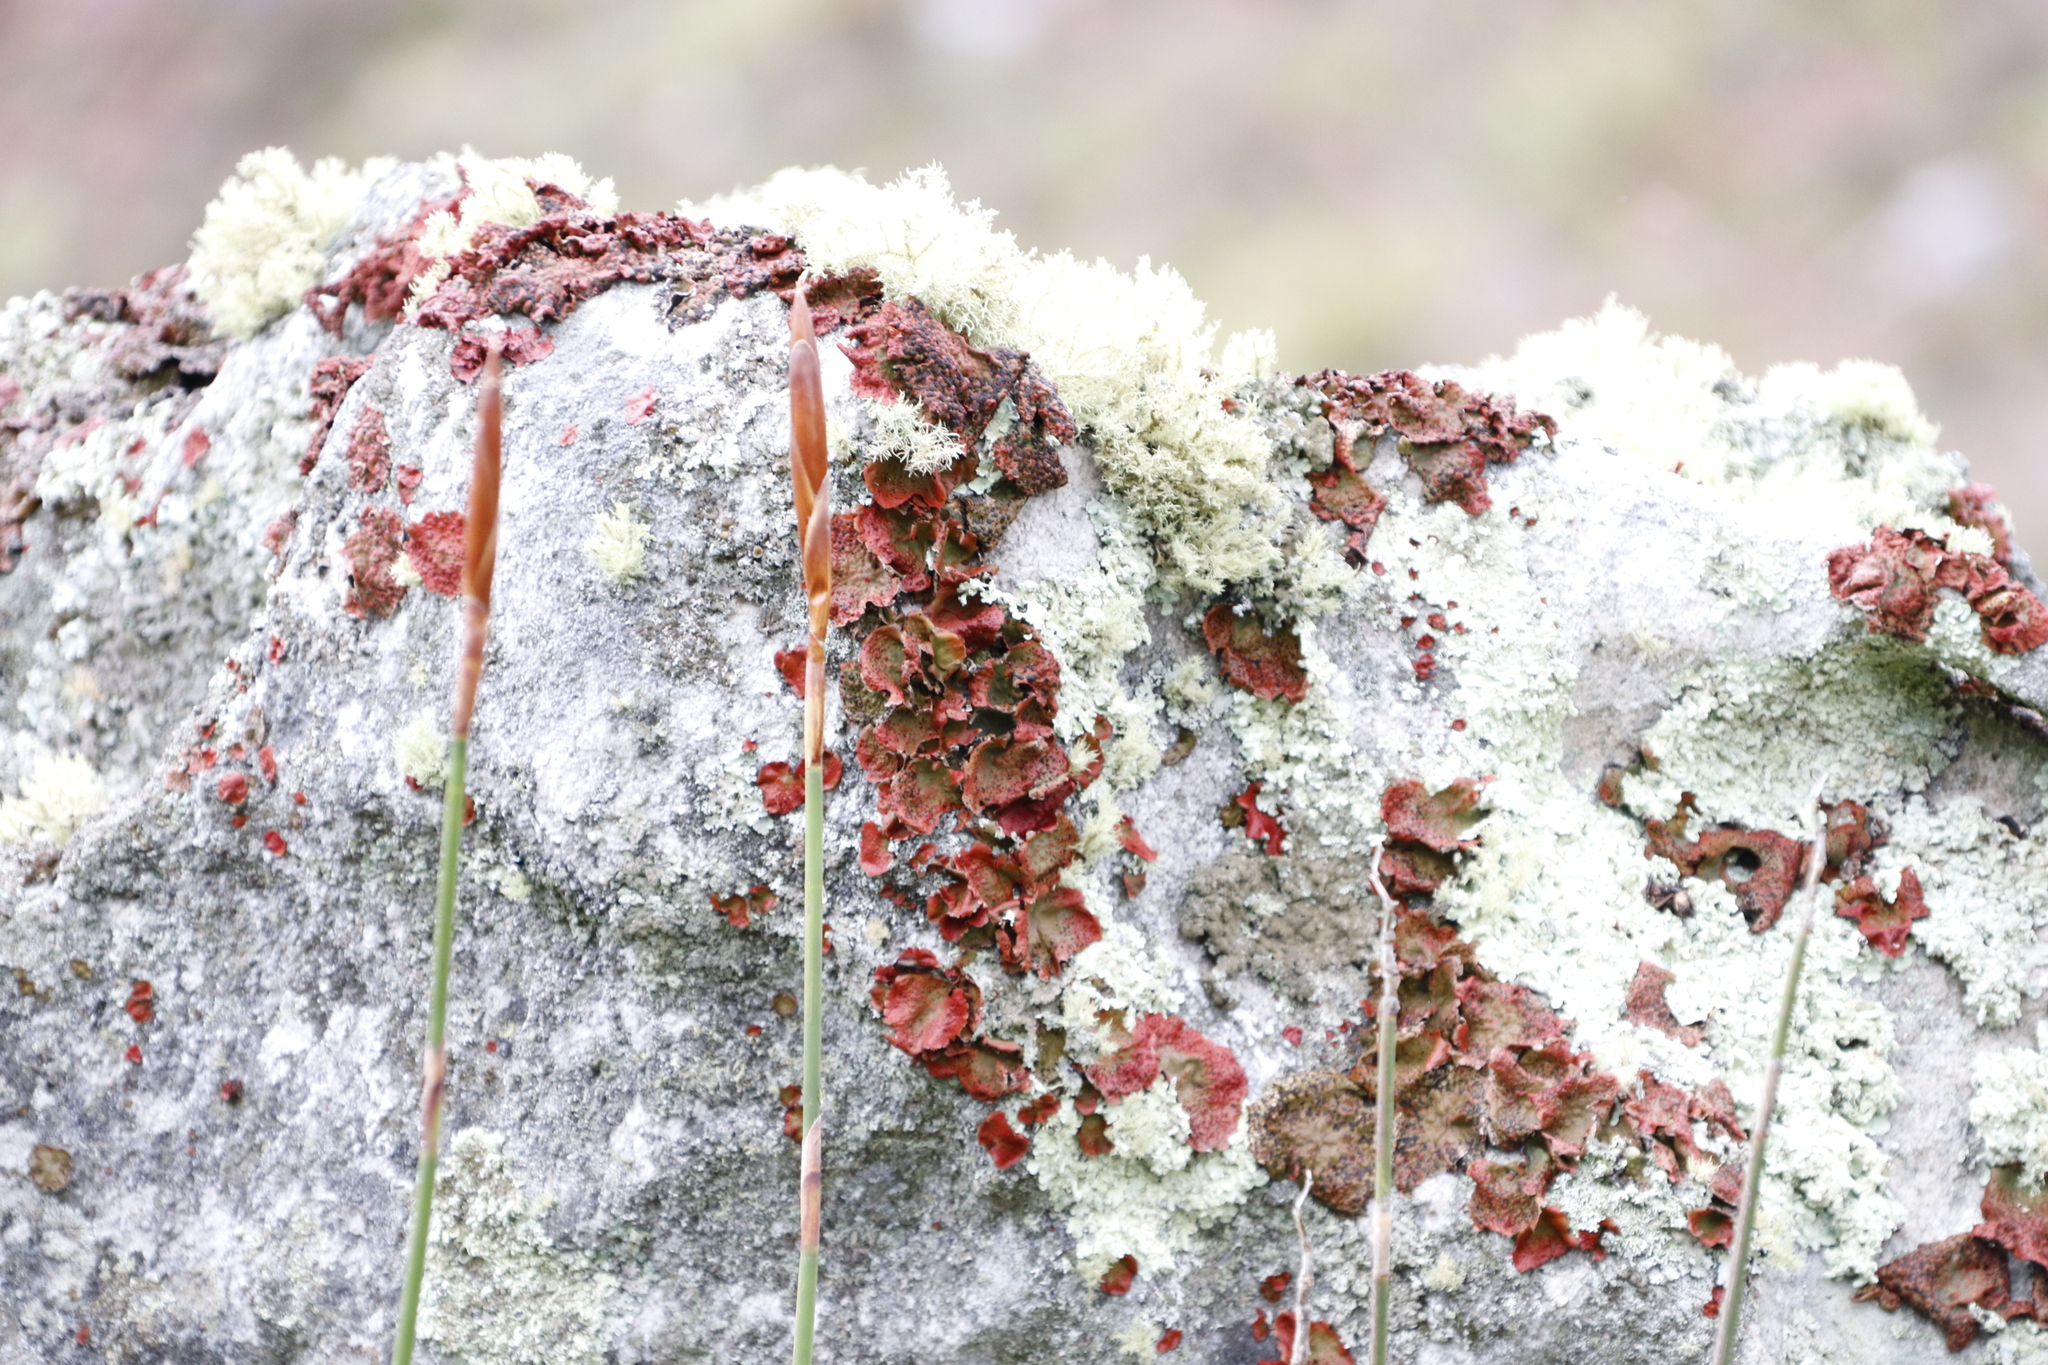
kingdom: Fungi
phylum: Ascomycota
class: Lecanoromycetes
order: Umbilicariales
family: Umbilicariaceae
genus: Lasallia
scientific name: Lasallia rubiginosa
